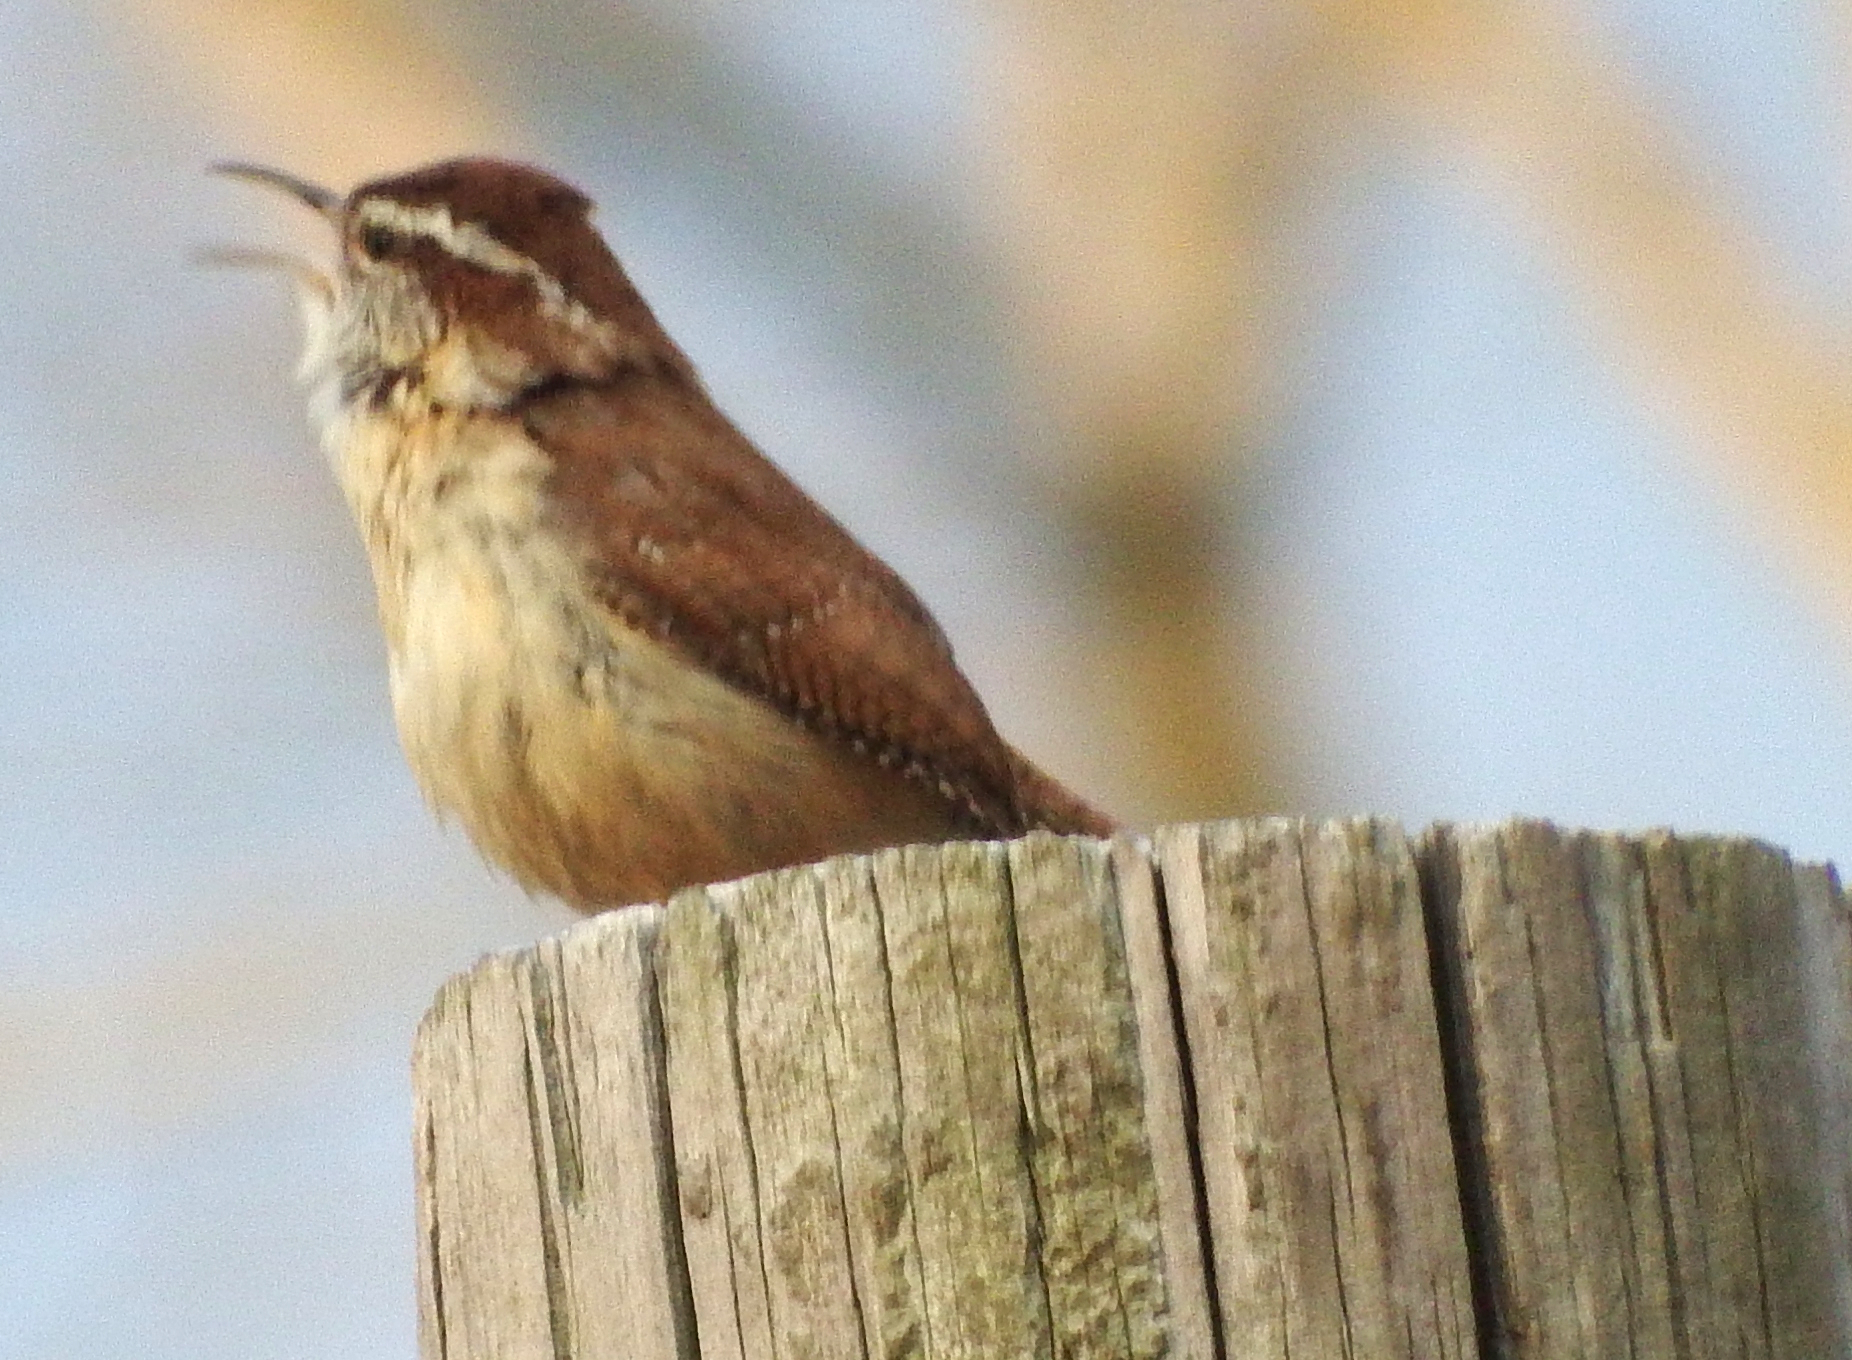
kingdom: Animalia
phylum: Chordata
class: Aves
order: Passeriformes
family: Troglodytidae
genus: Thryothorus
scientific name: Thryothorus ludovicianus
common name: Carolina wren
